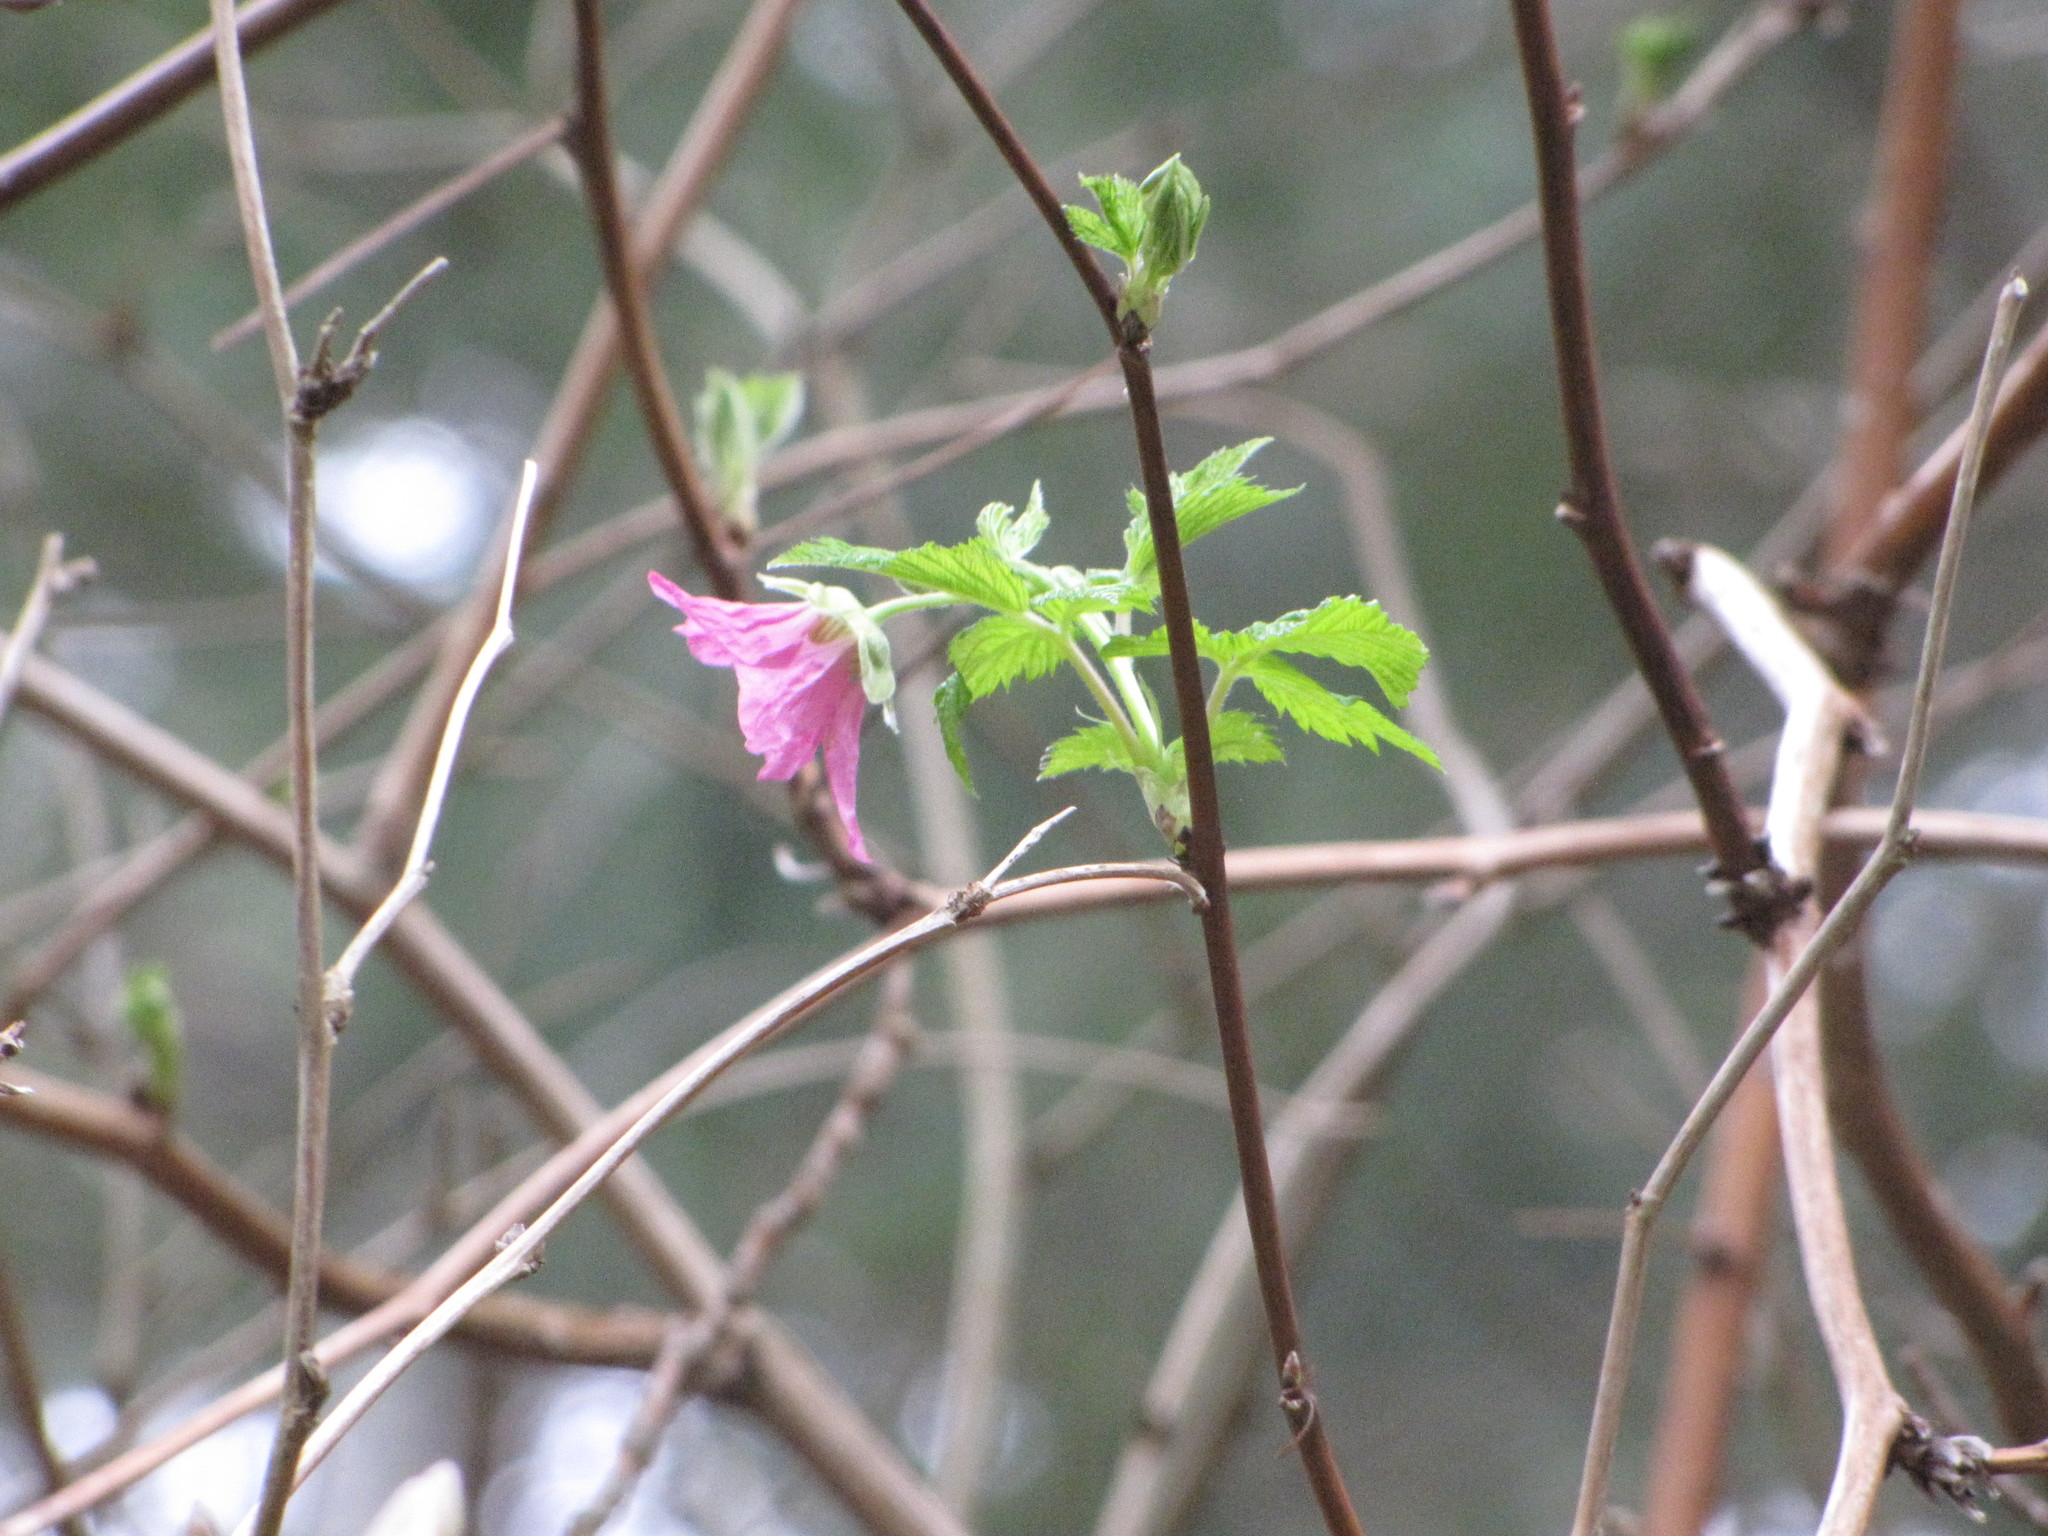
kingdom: Plantae
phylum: Tracheophyta
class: Magnoliopsida
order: Rosales
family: Rosaceae
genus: Rubus
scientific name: Rubus spectabilis
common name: Salmonberry
